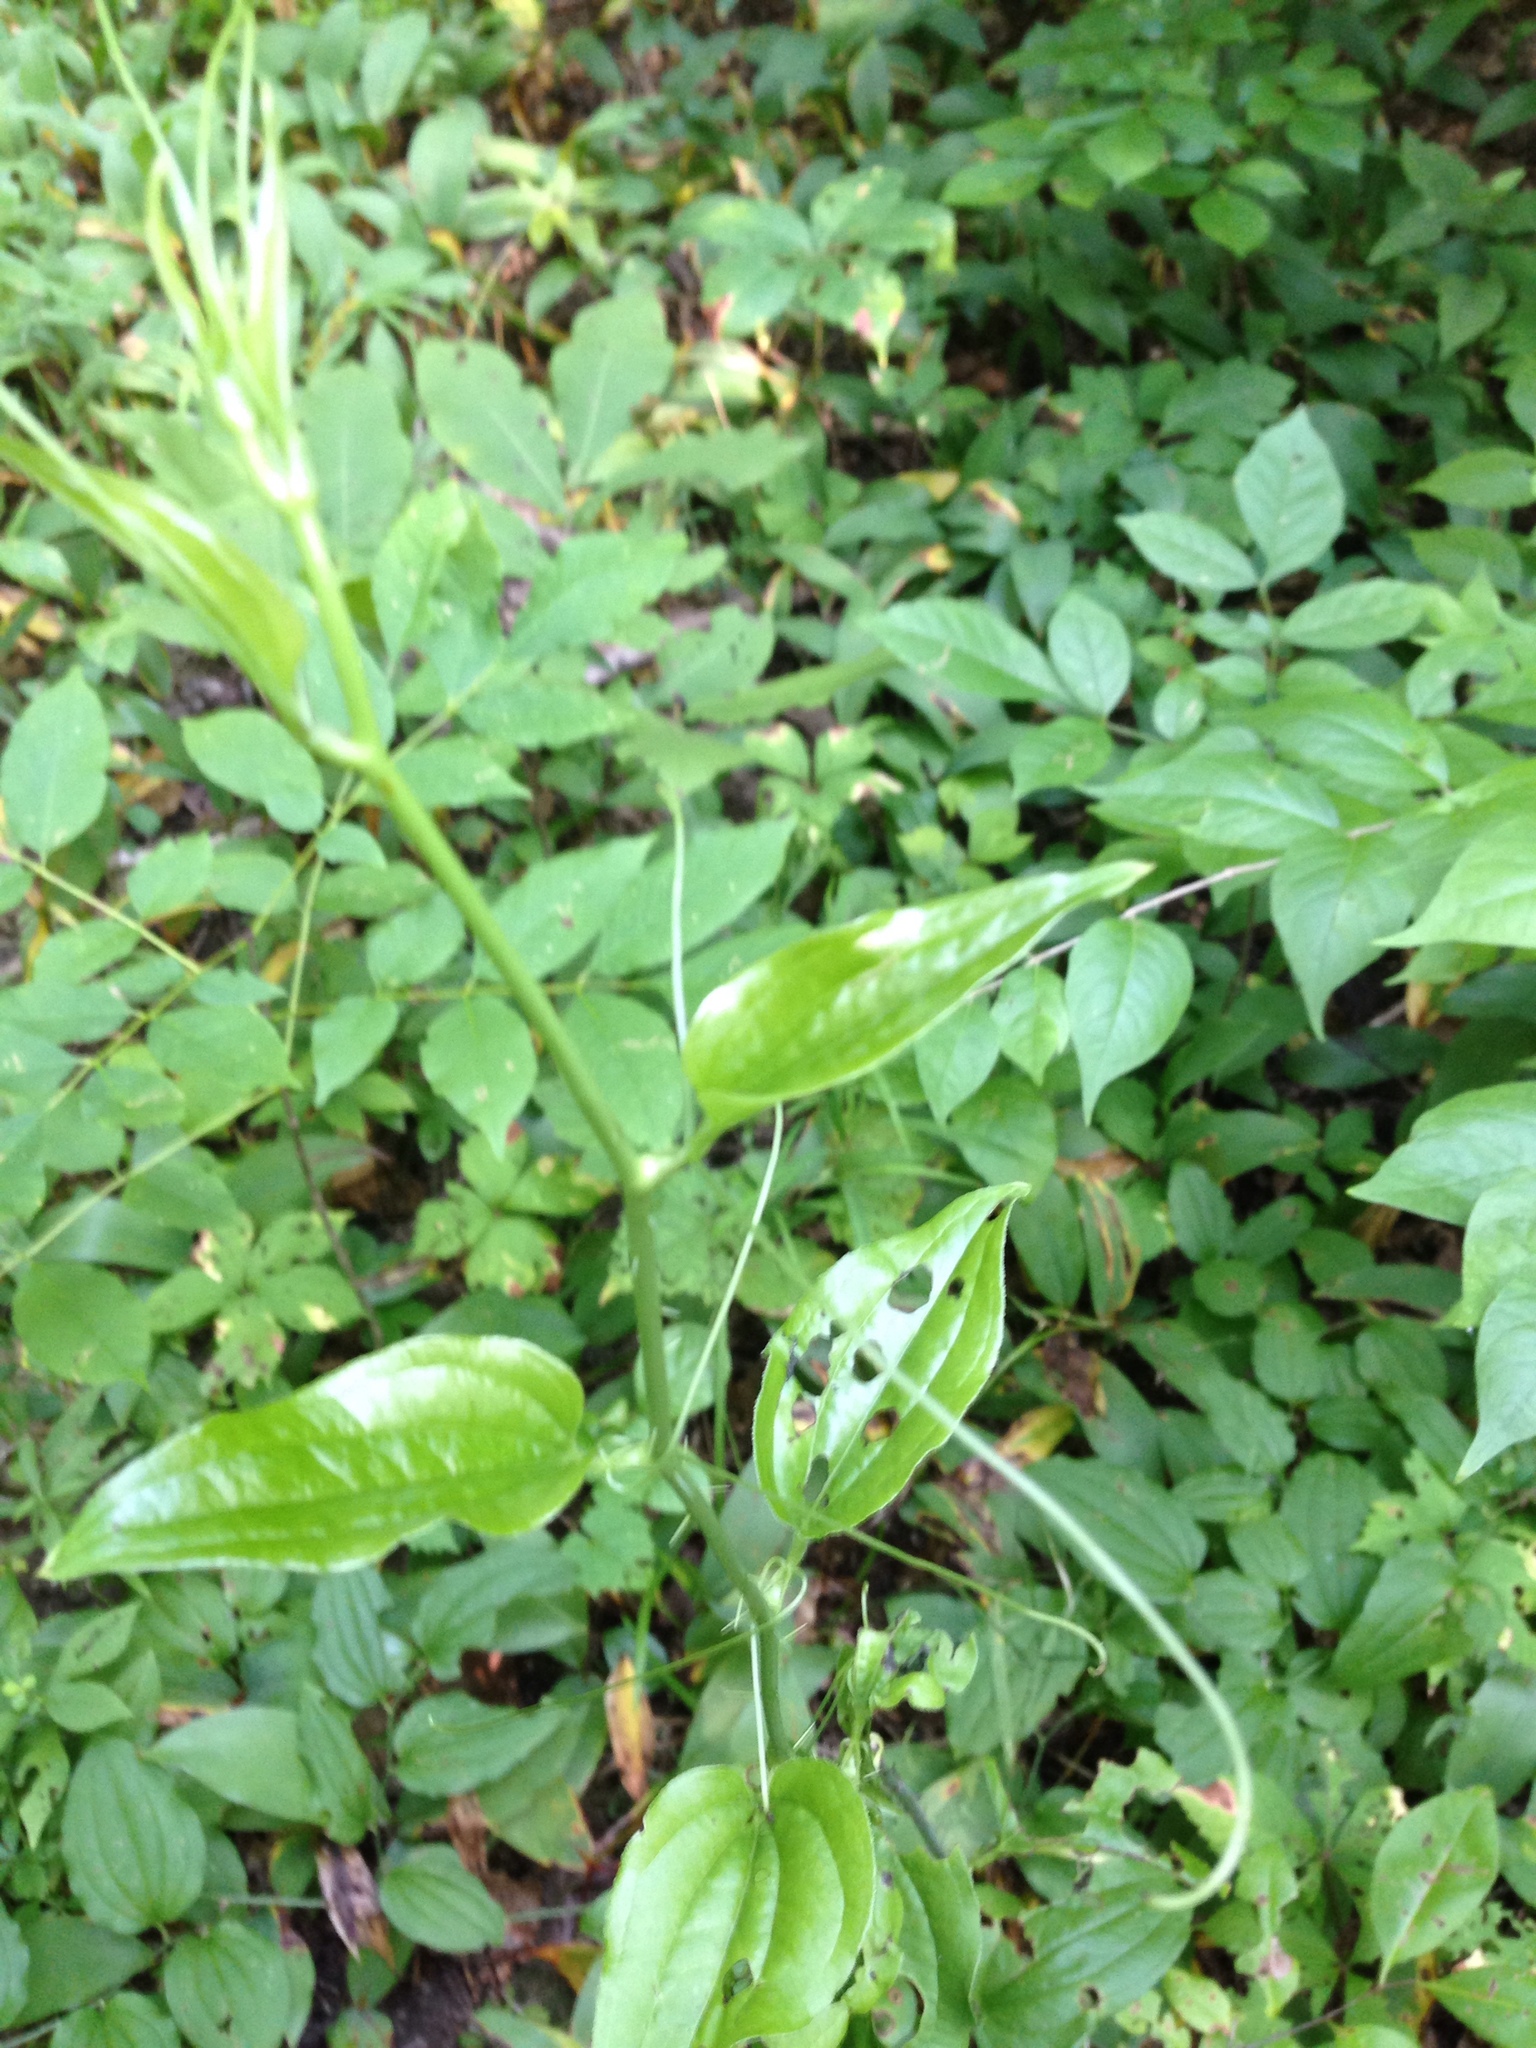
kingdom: Plantae
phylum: Tracheophyta
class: Liliopsida
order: Liliales
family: Smilacaceae
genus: Smilax
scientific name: Smilax tamnoides
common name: Hellfetter
